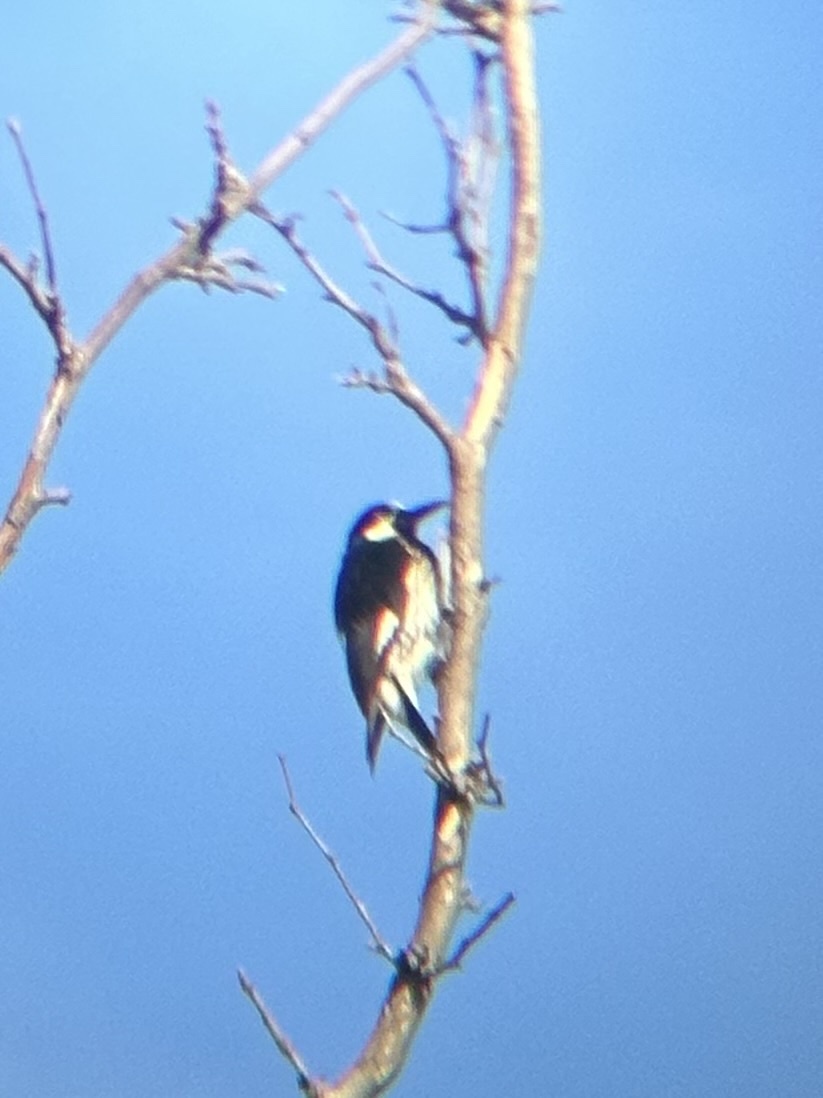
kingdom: Animalia
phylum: Chordata
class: Aves
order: Piciformes
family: Picidae
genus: Melanerpes
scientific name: Melanerpes formicivorus
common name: Acorn woodpecker
